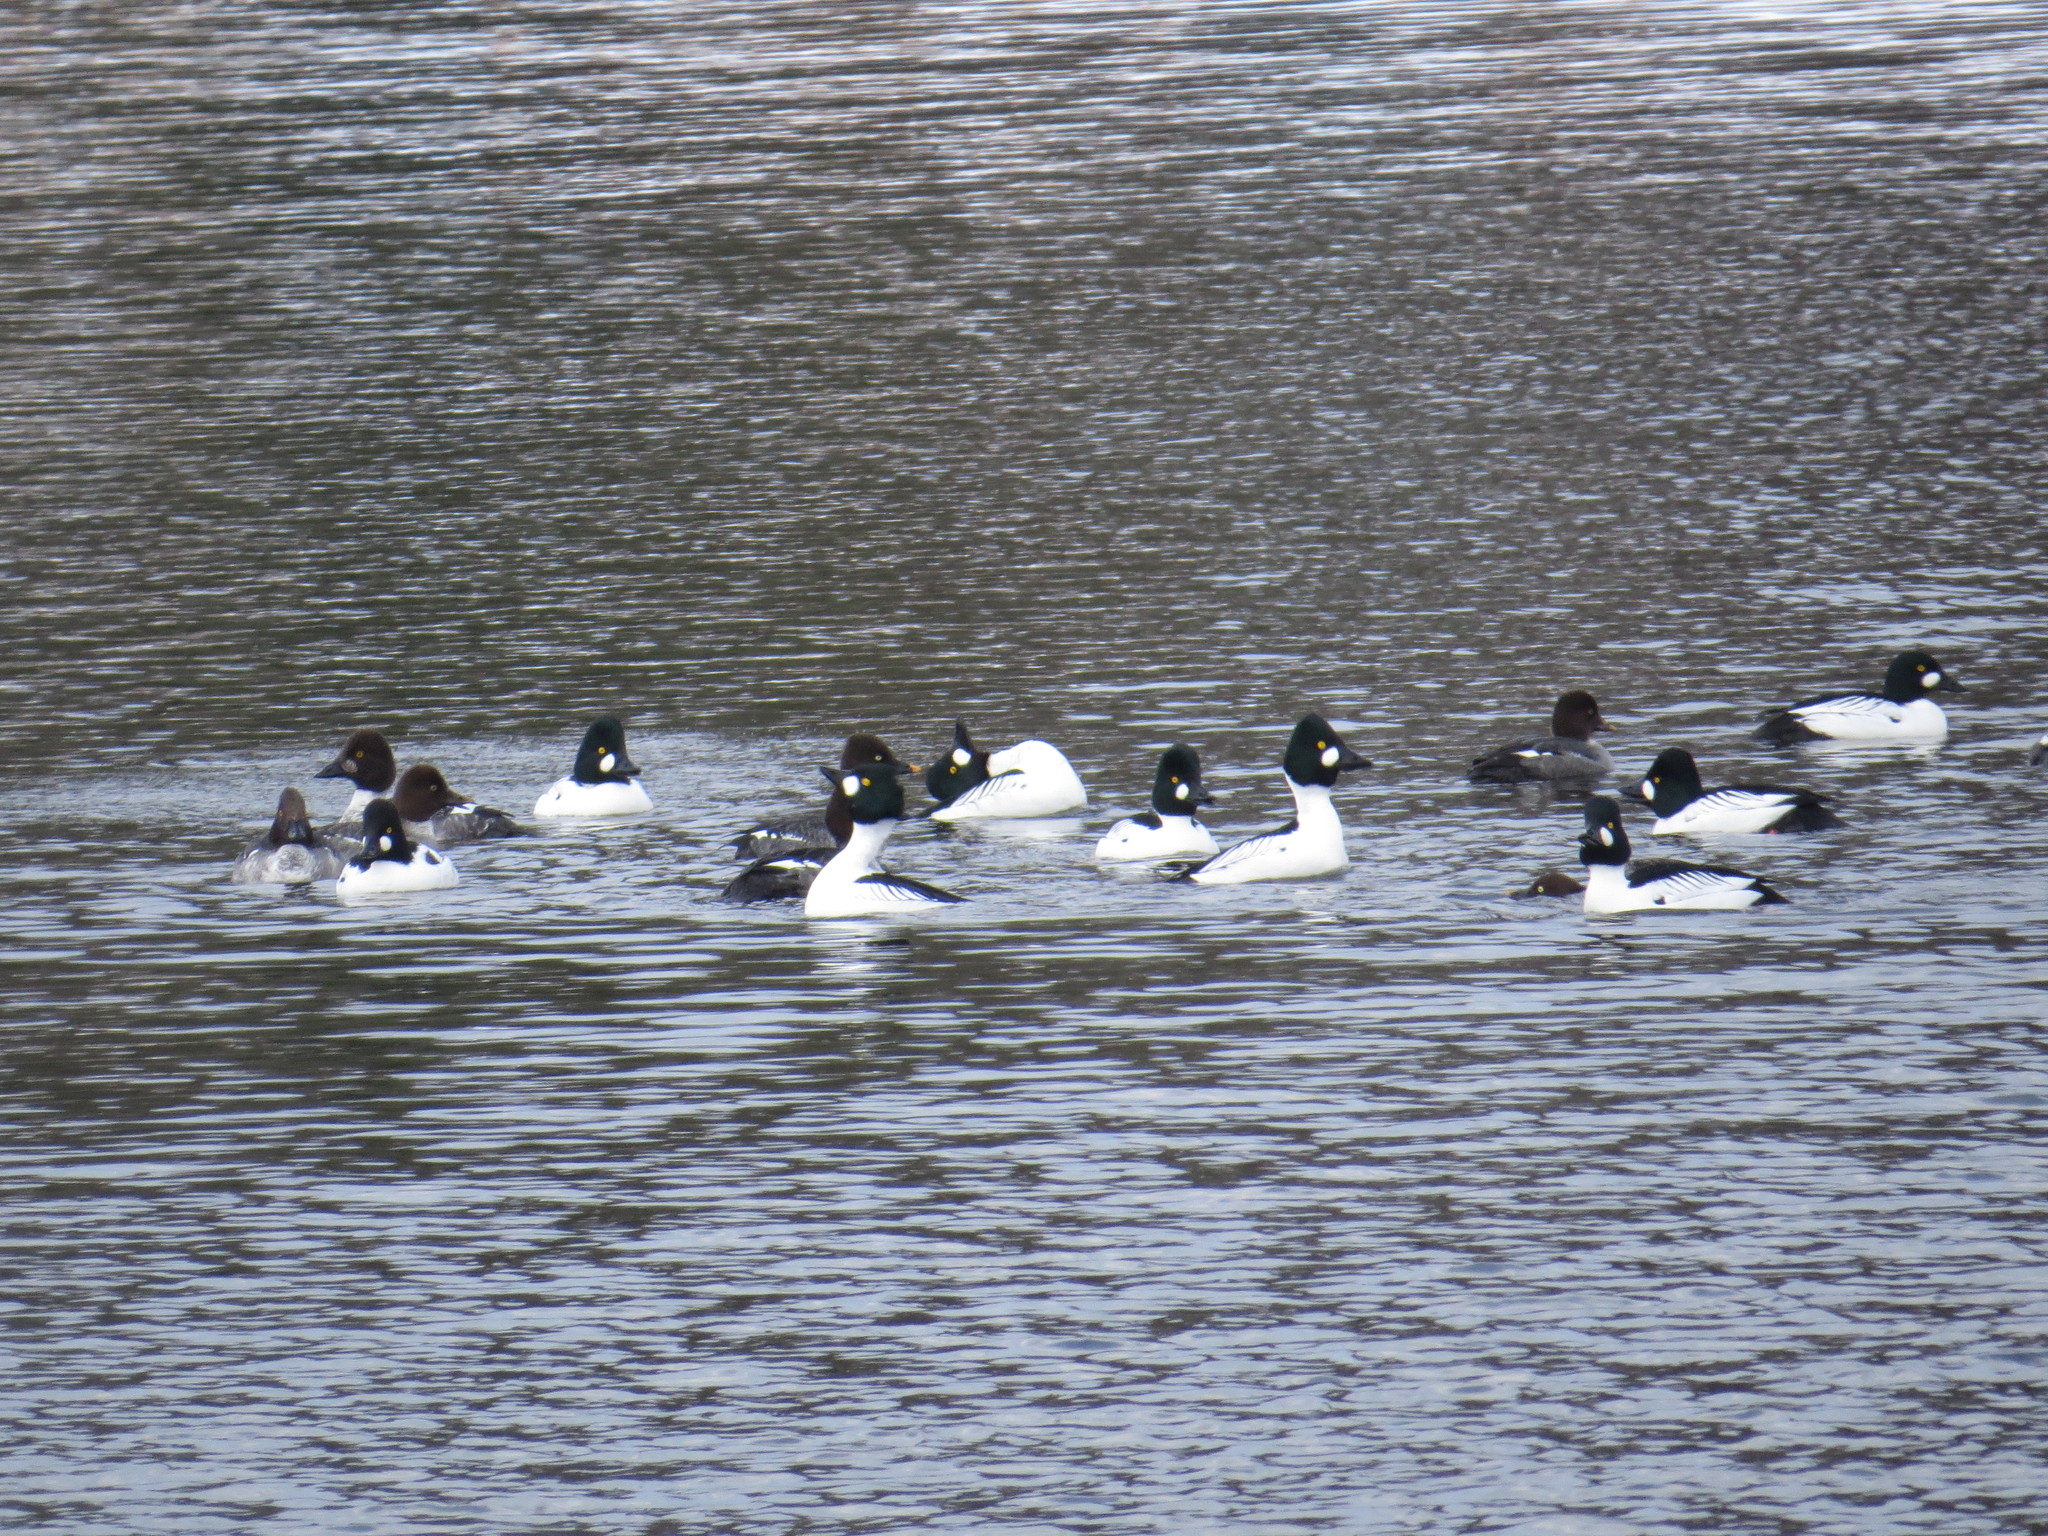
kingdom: Animalia
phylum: Chordata
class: Aves
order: Anseriformes
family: Anatidae
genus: Bucephala
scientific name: Bucephala clangula
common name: Common goldeneye
